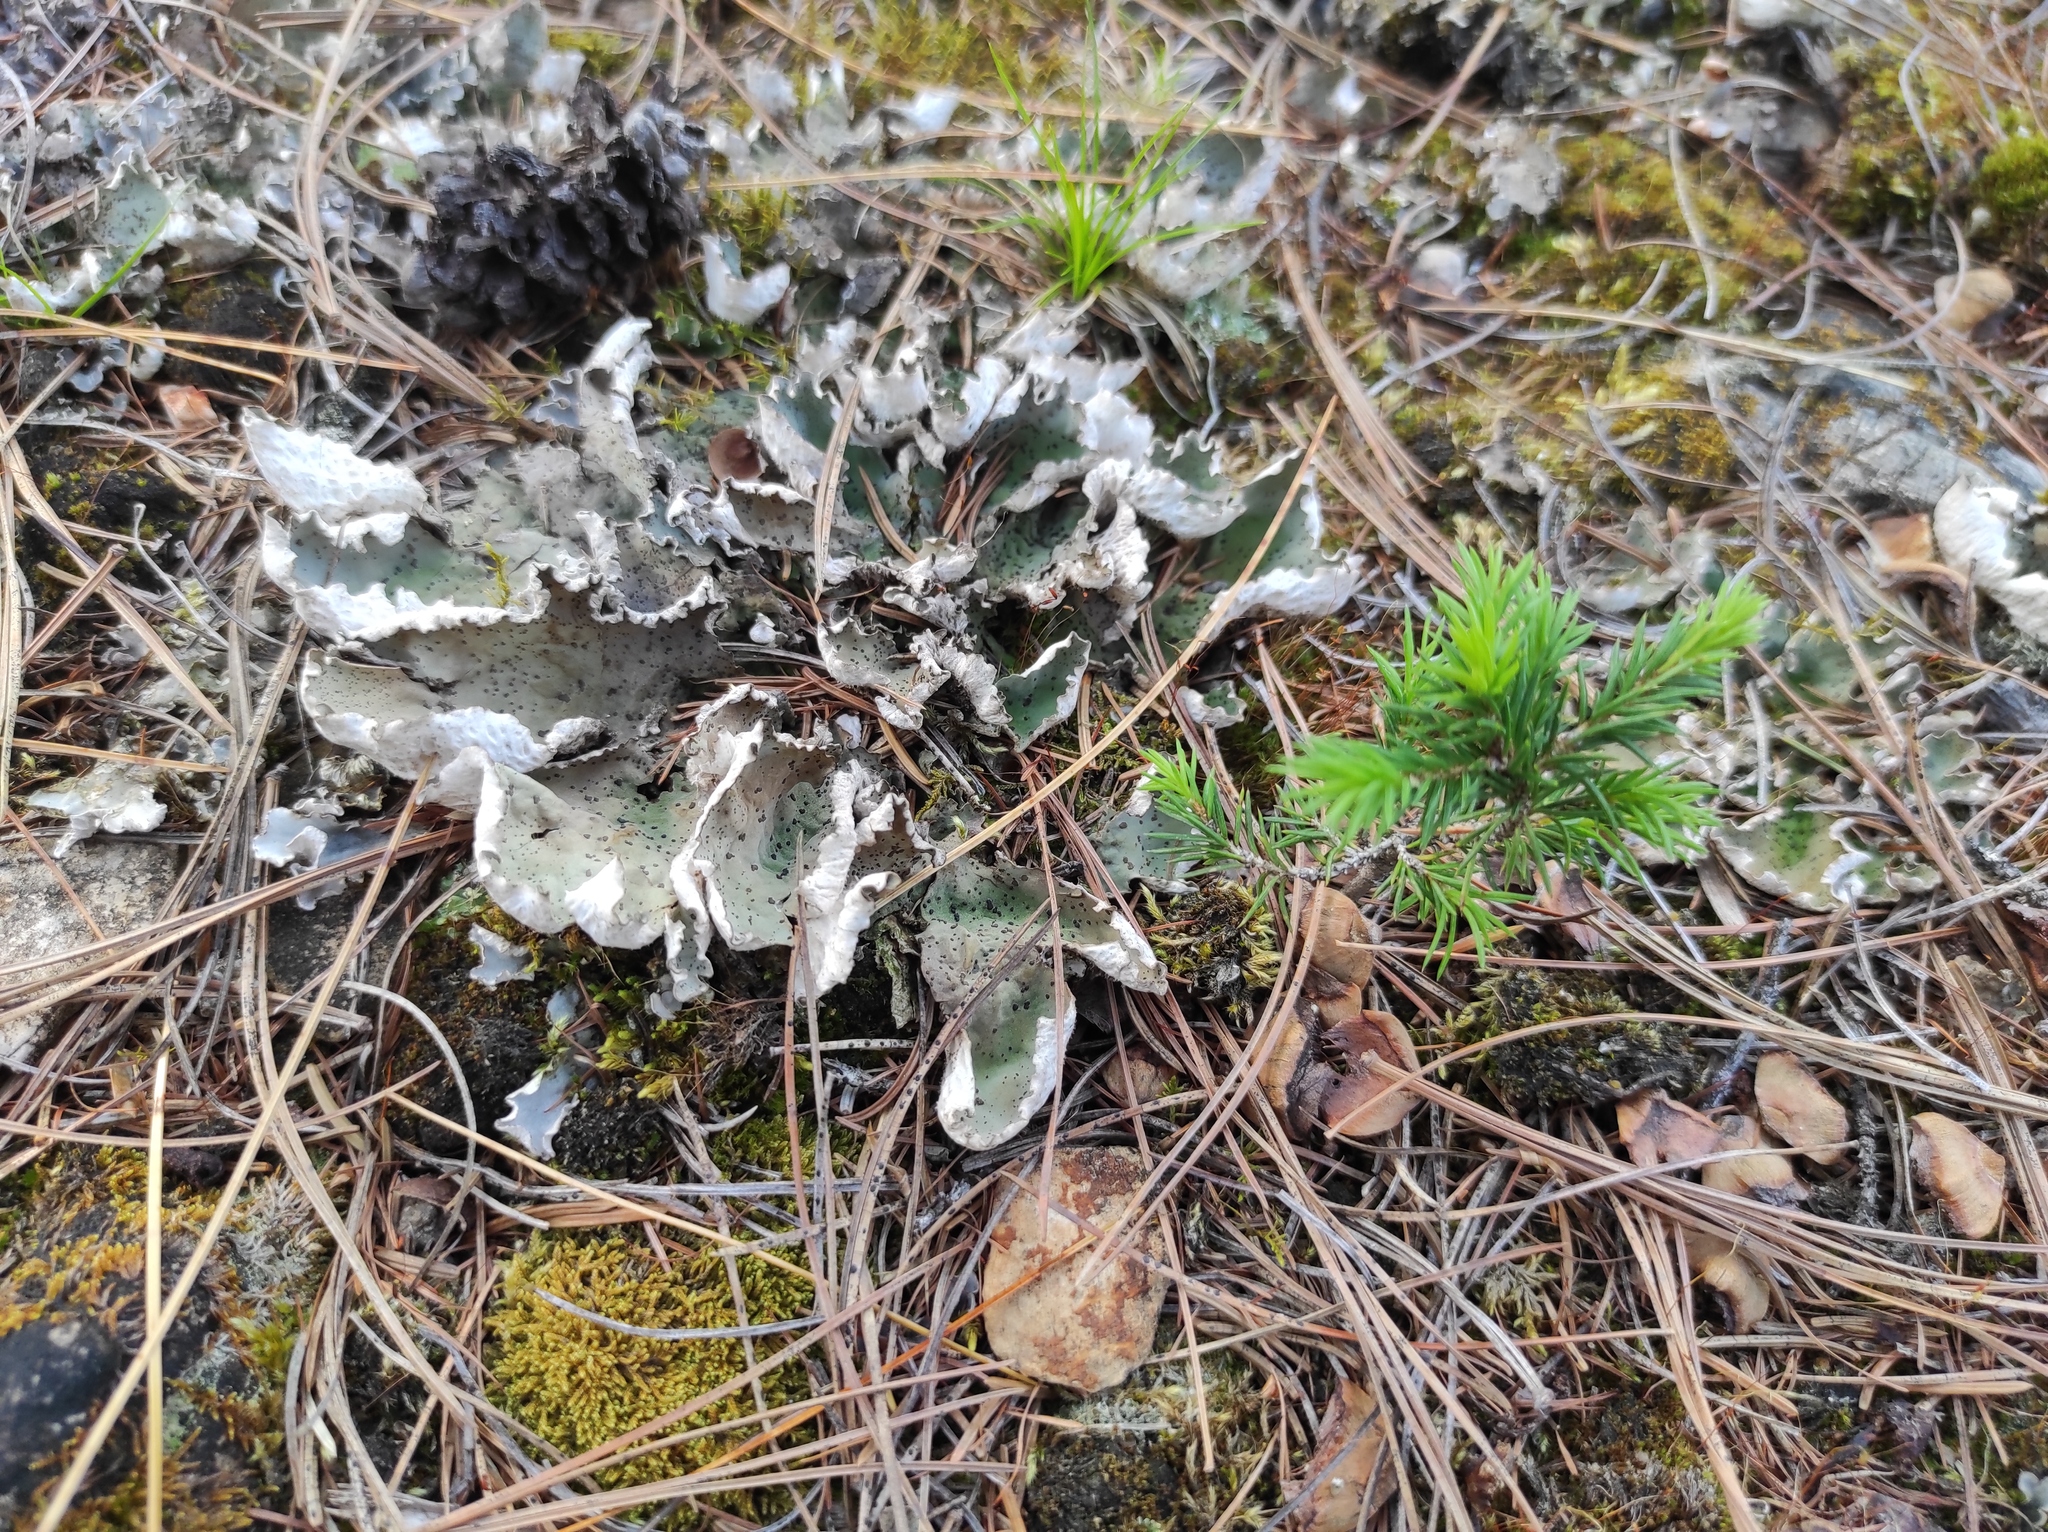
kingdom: Plantae
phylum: Tracheophyta
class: Pinopsida
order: Pinales
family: Pinaceae
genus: Picea
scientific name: Picea obovata
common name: Siberian spruce
